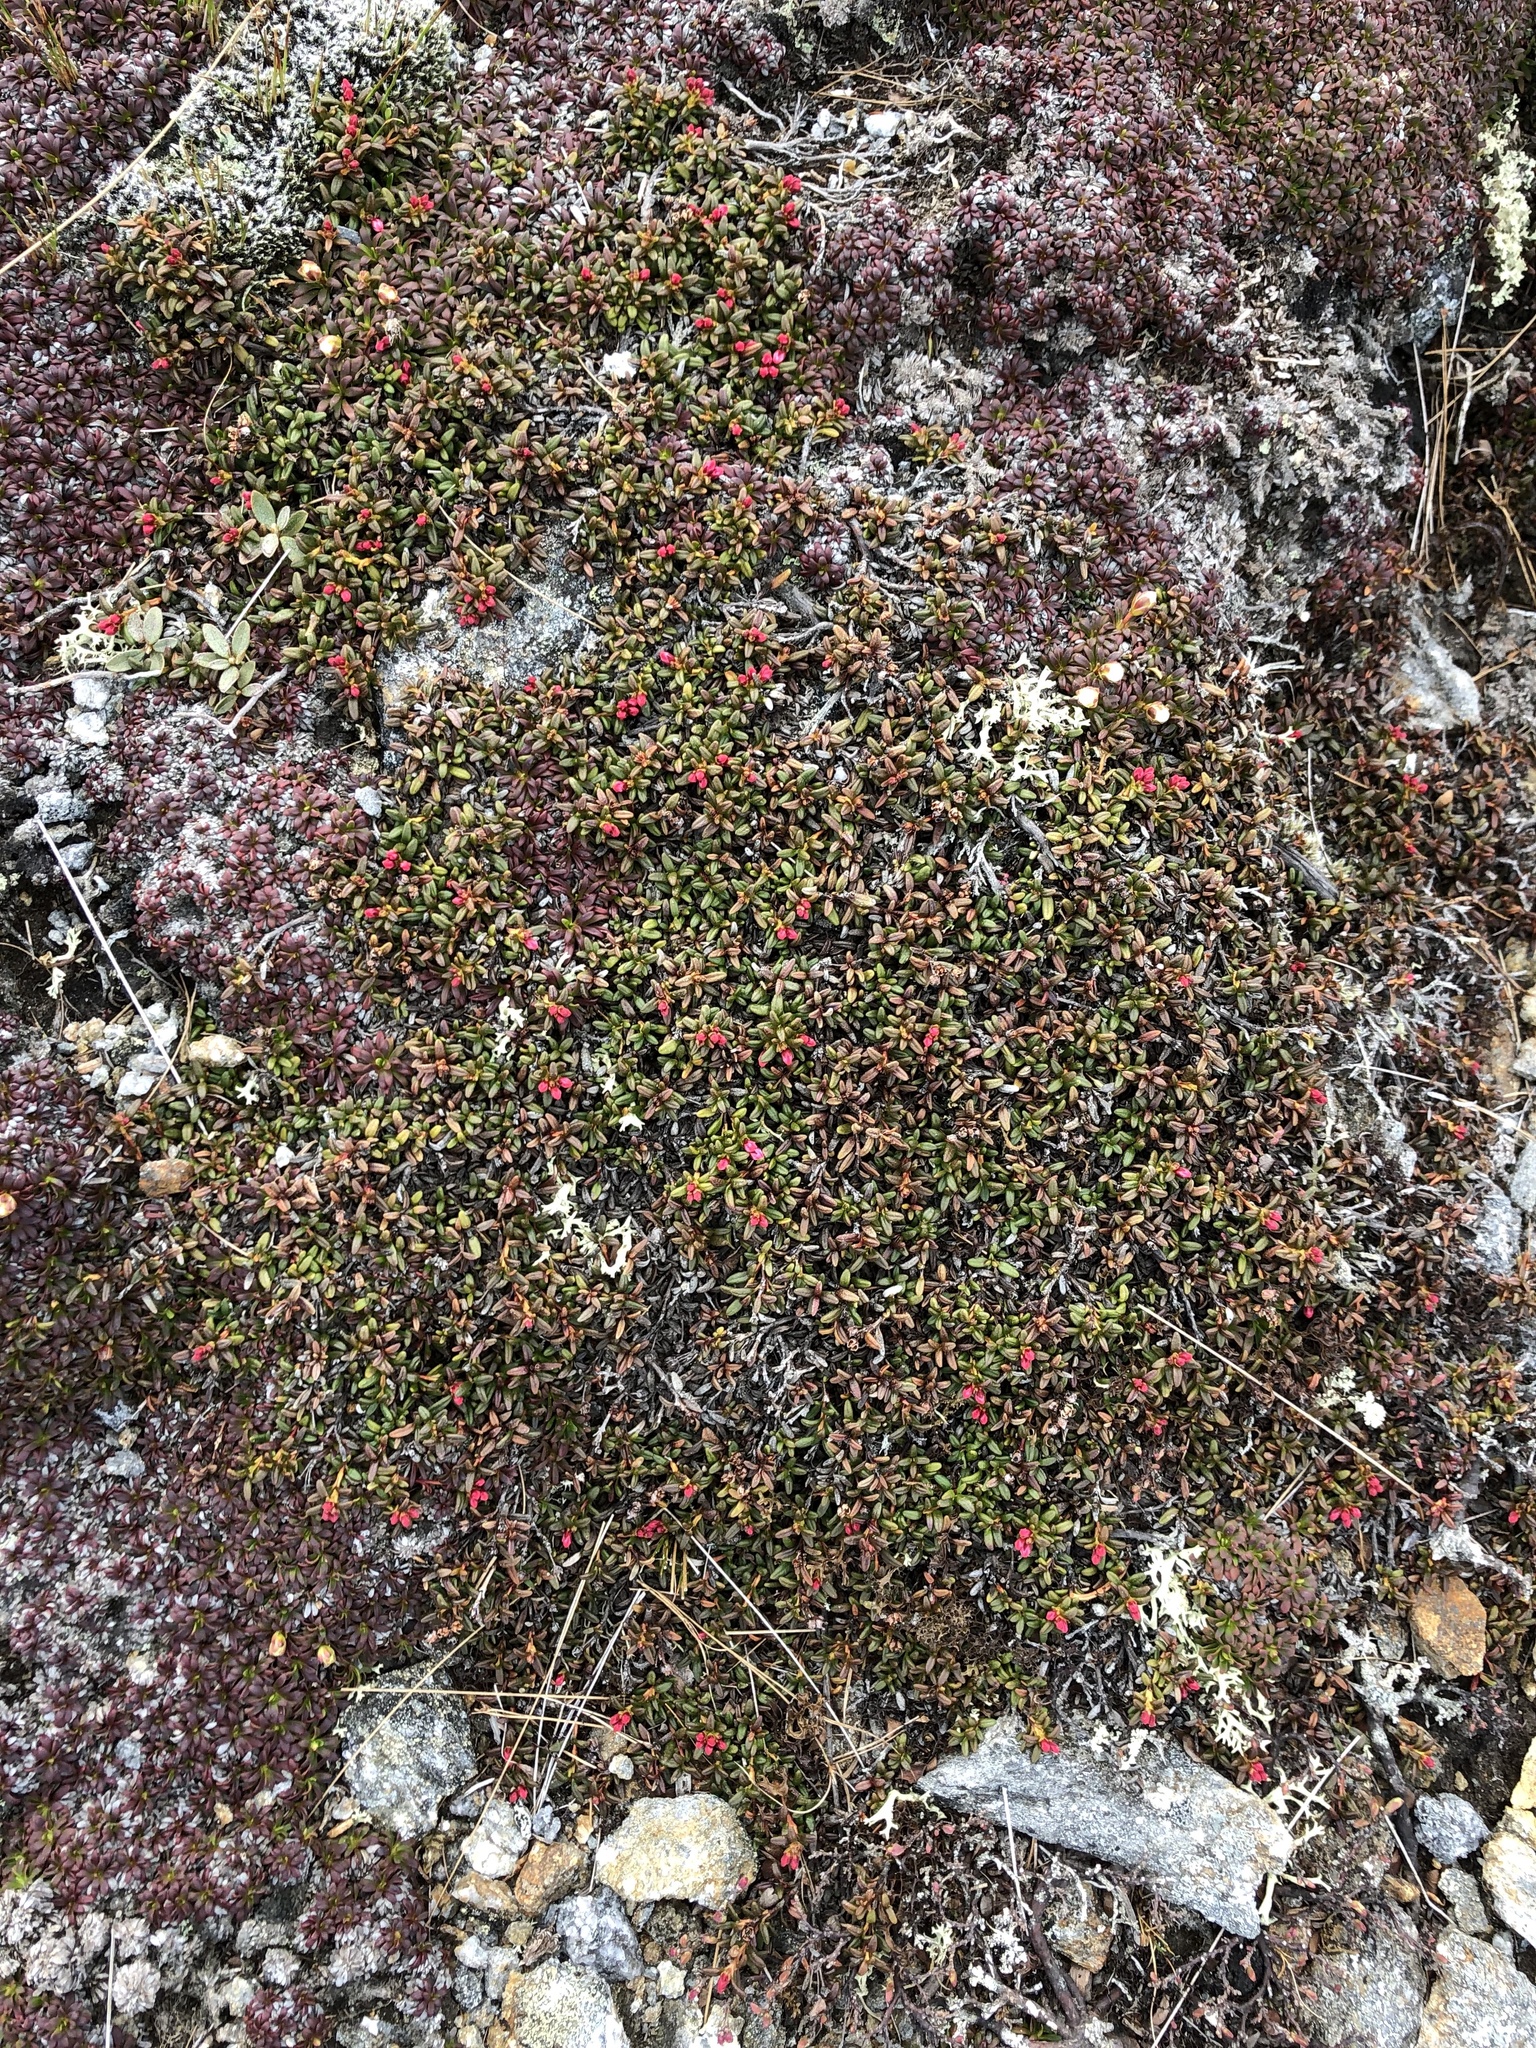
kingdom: Plantae
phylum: Tracheophyta
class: Magnoliopsida
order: Ericales
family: Ericaceae
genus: Kalmia
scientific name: Kalmia procumbens
